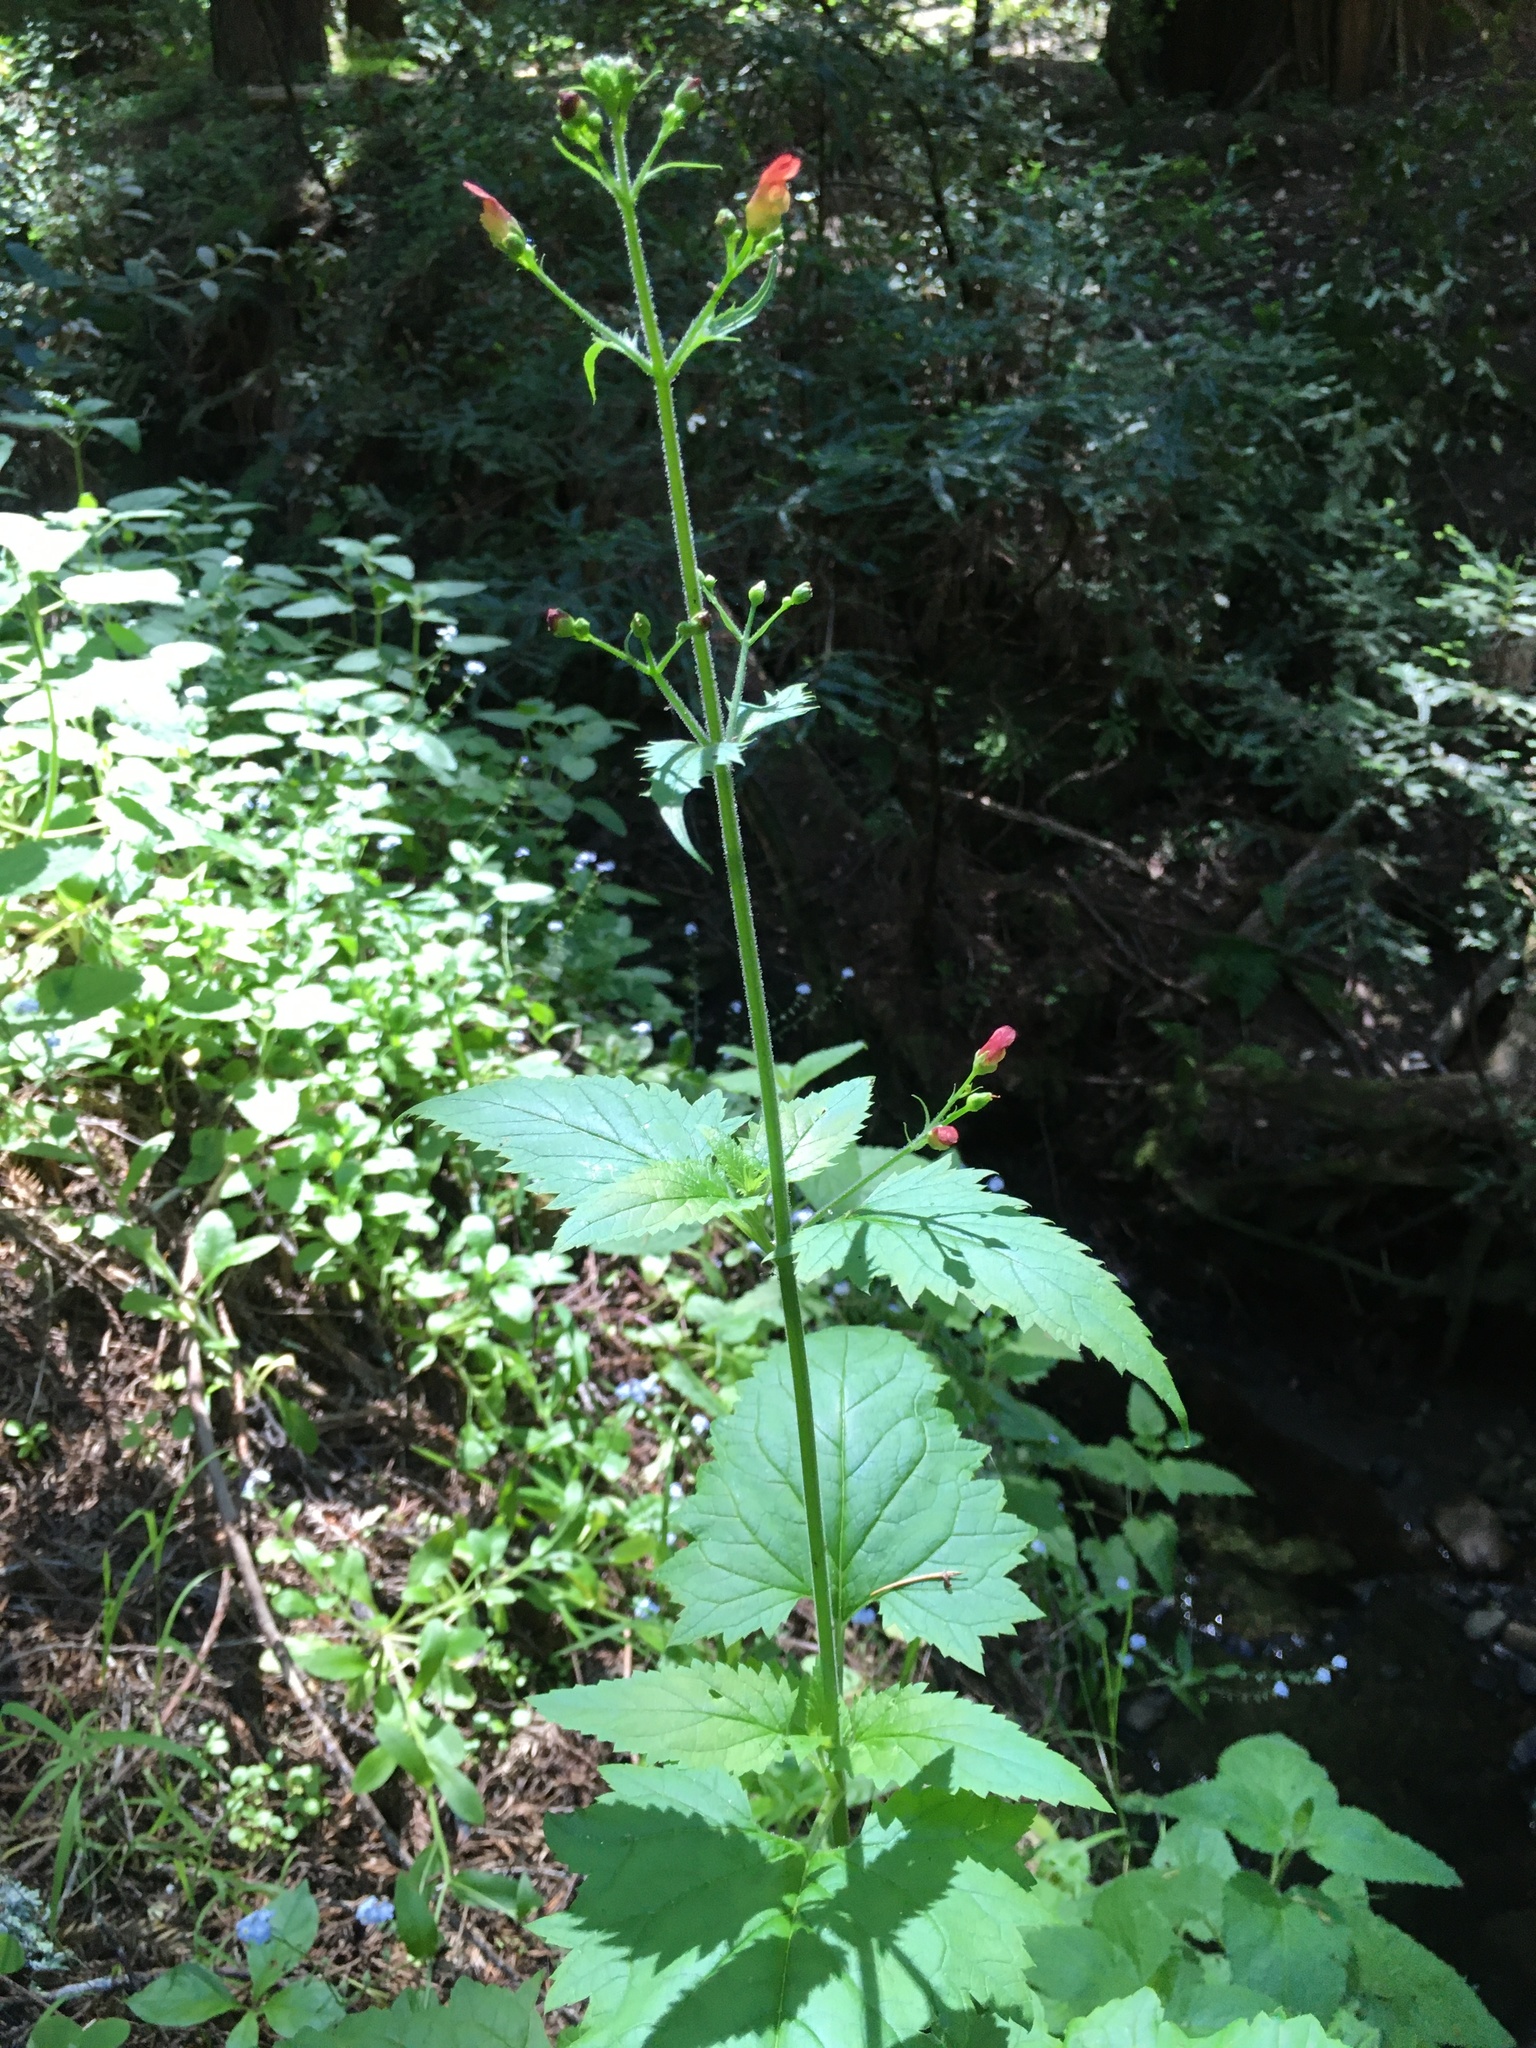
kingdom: Plantae
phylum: Tracheophyta
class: Magnoliopsida
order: Lamiales
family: Scrophulariaceae
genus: Scrophularia
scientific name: Scrophularia californica
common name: California figwort
